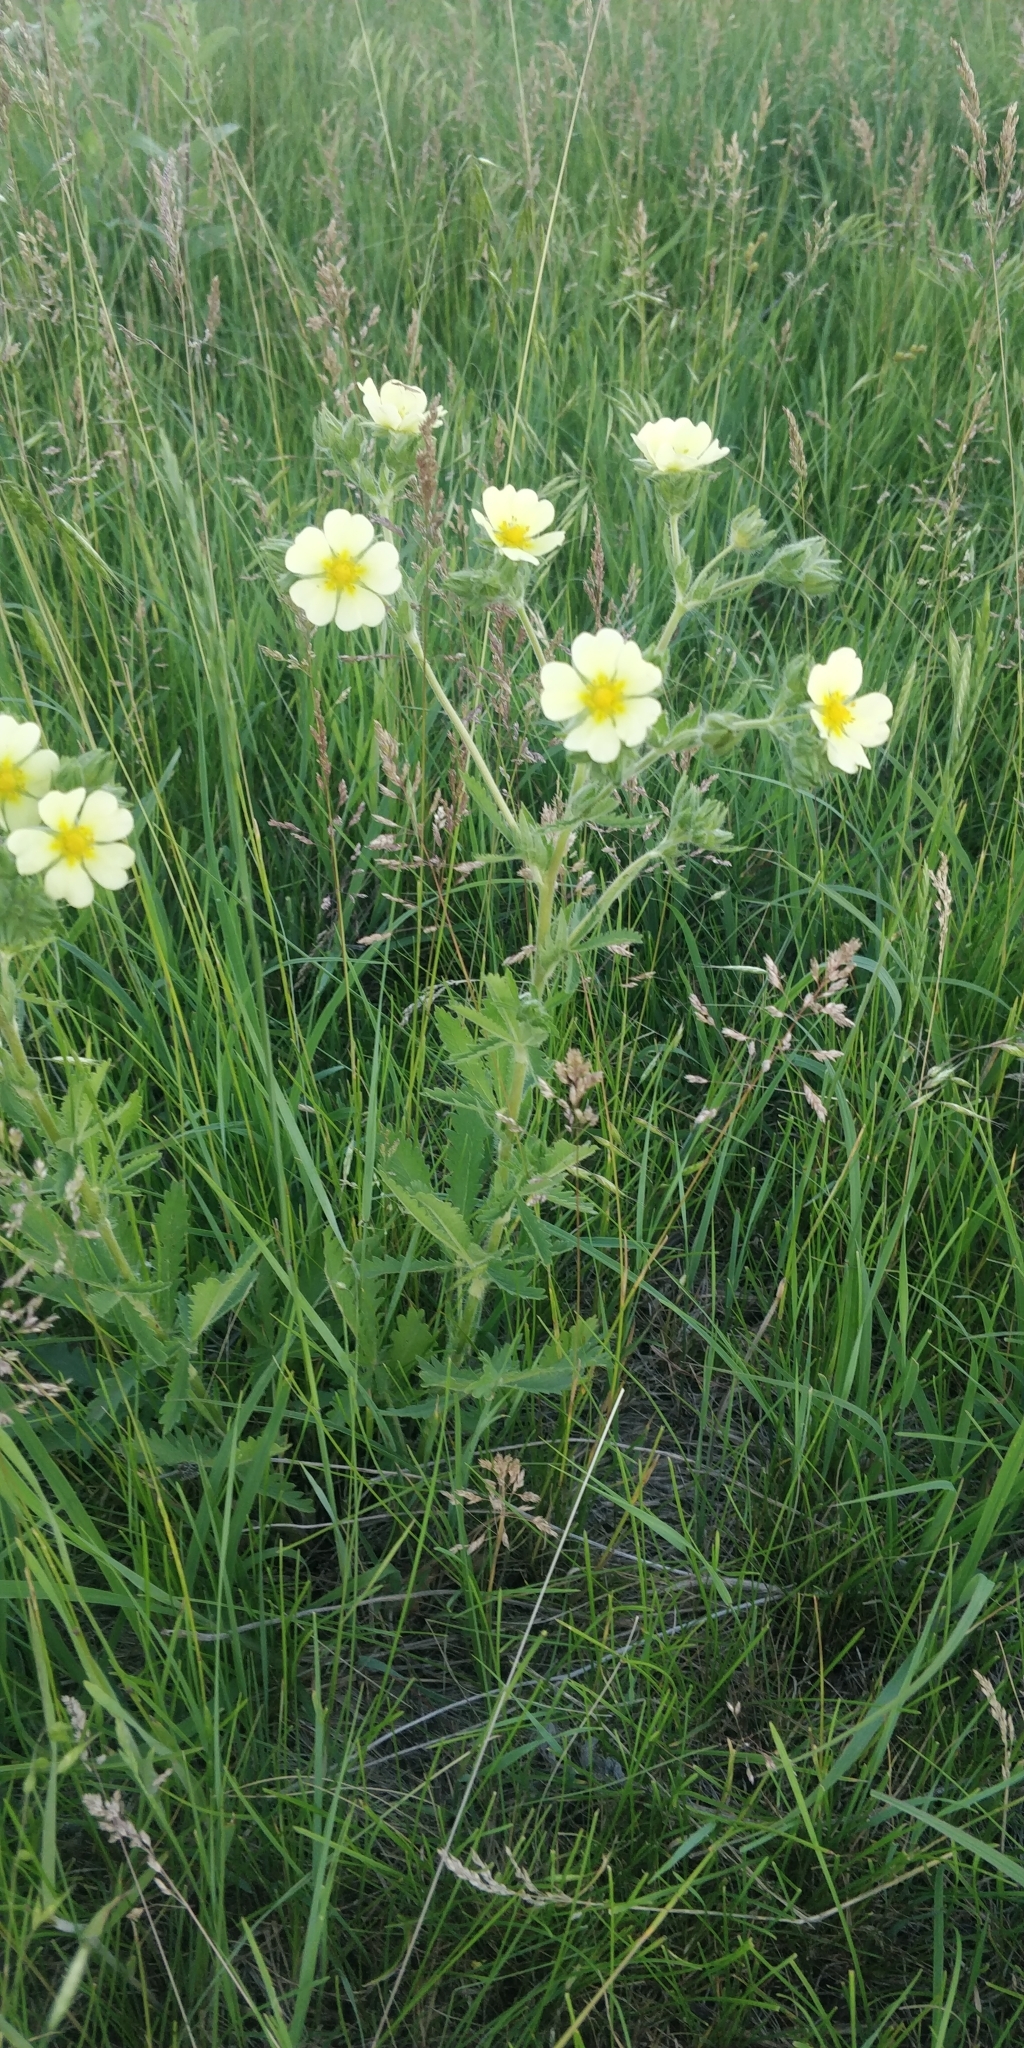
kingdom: Plantae
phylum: Tracheophyta
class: Magnoliopsida
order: Rosales
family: Rosaceae
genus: Potentilla
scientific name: Potentilla recta
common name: Sulphur cinquefoil
